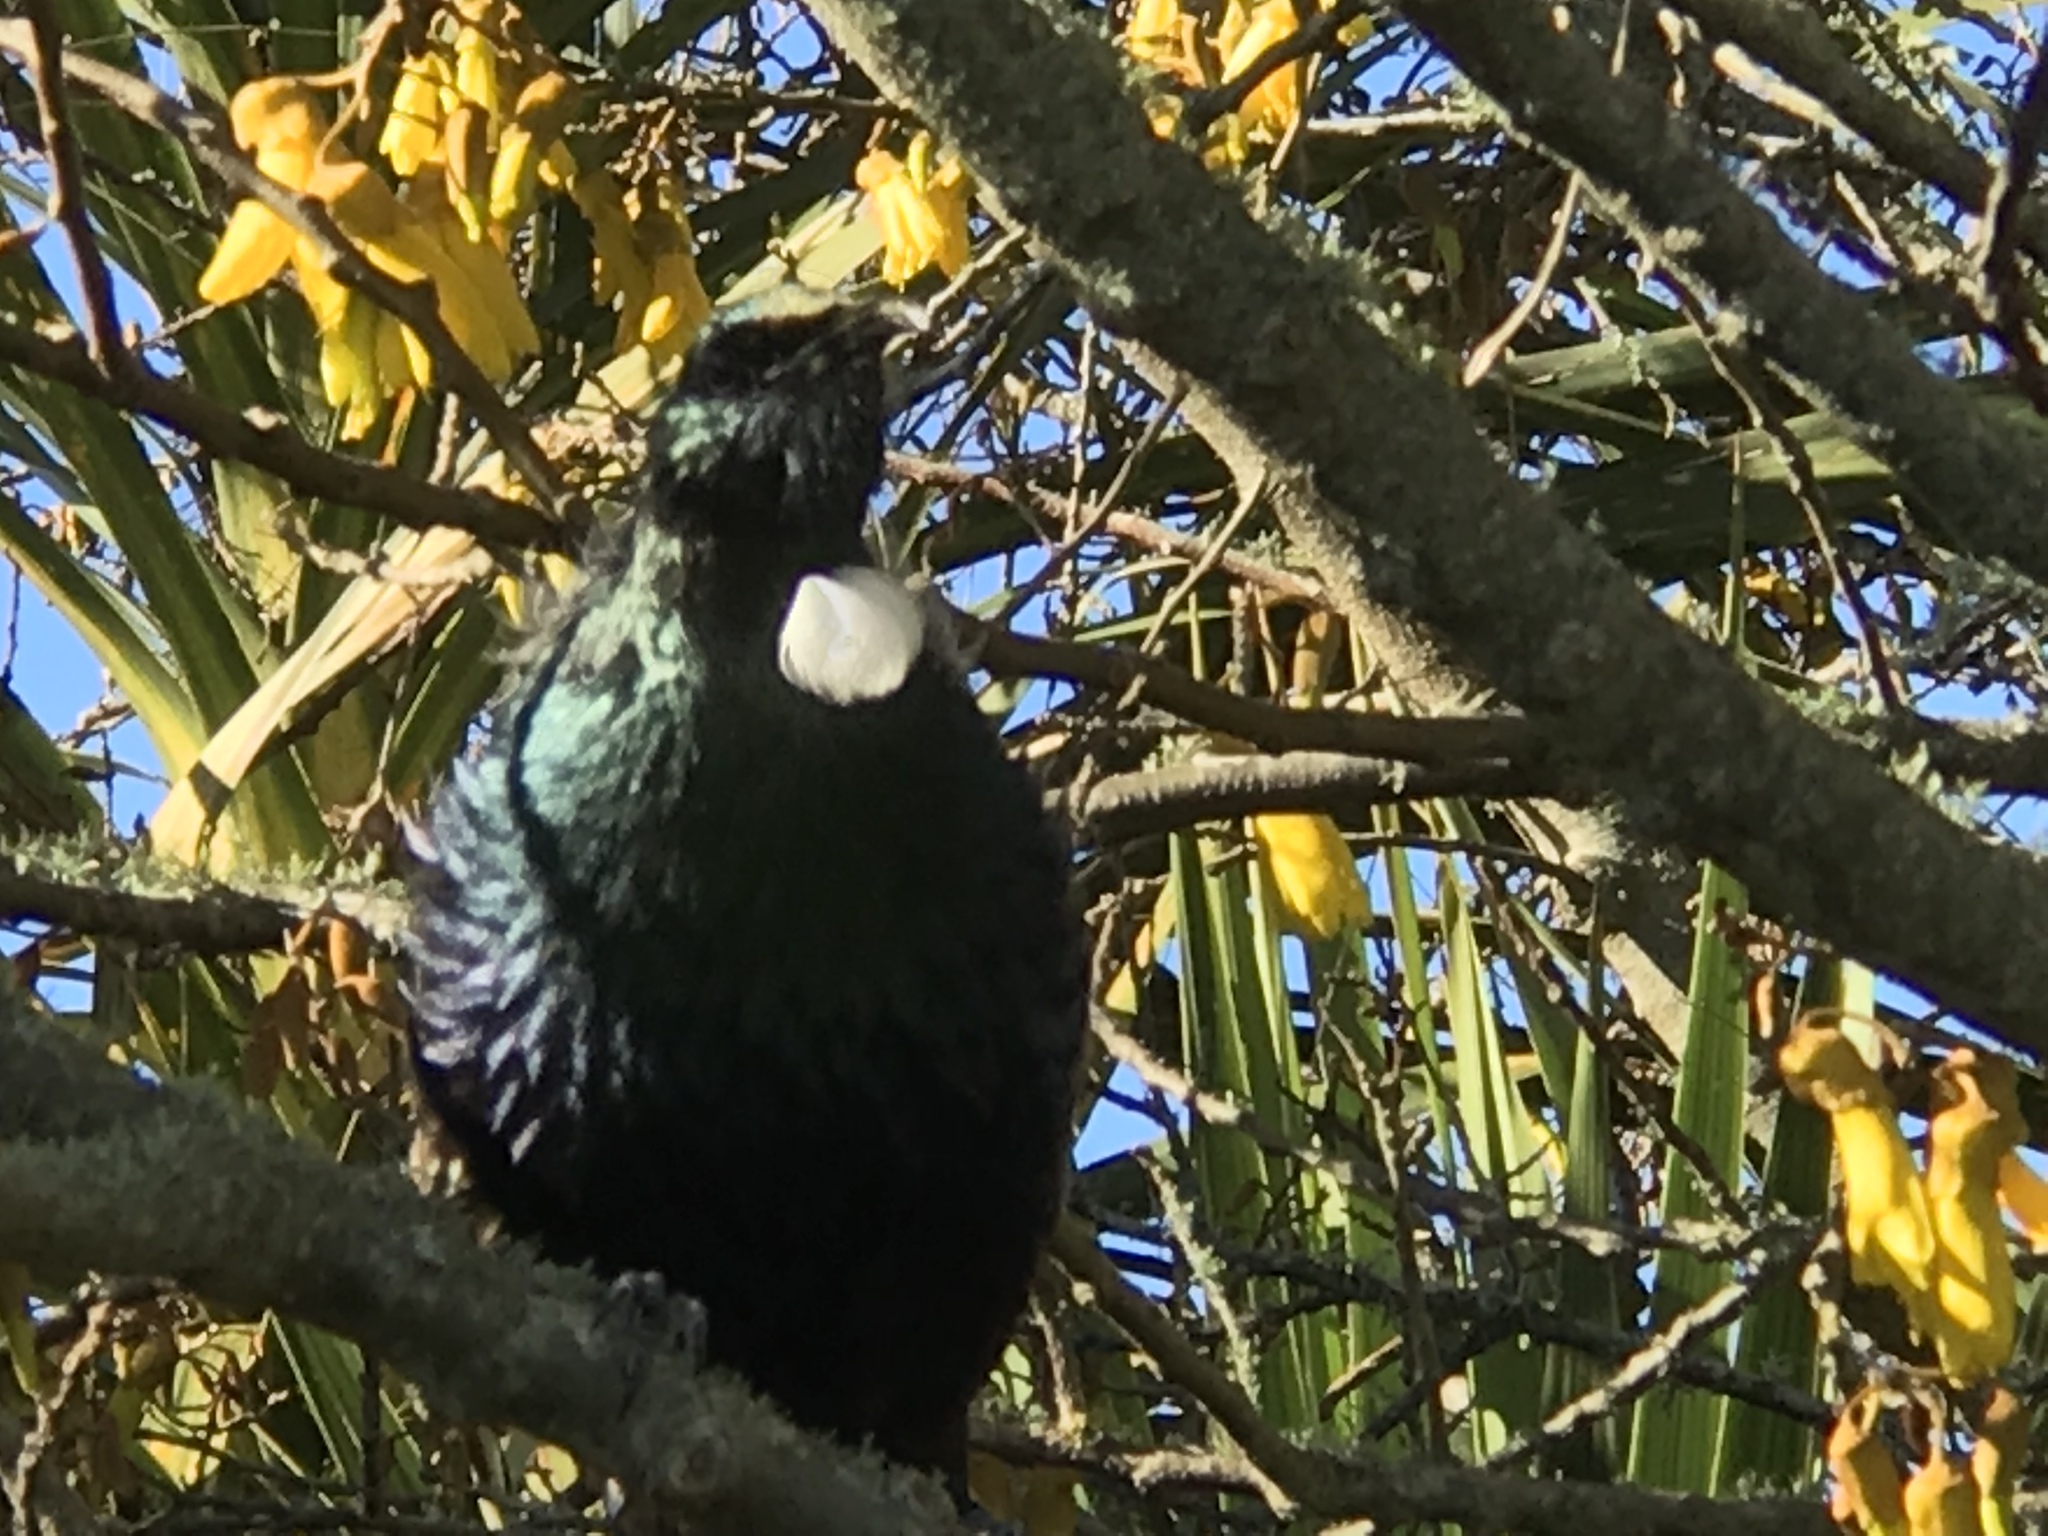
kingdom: Animalia
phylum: Chordata
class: Aves
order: Passeriformes
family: Meliphagidae
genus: Prosthemadera
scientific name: Prosthemadera novaeseelandiae
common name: Tui
